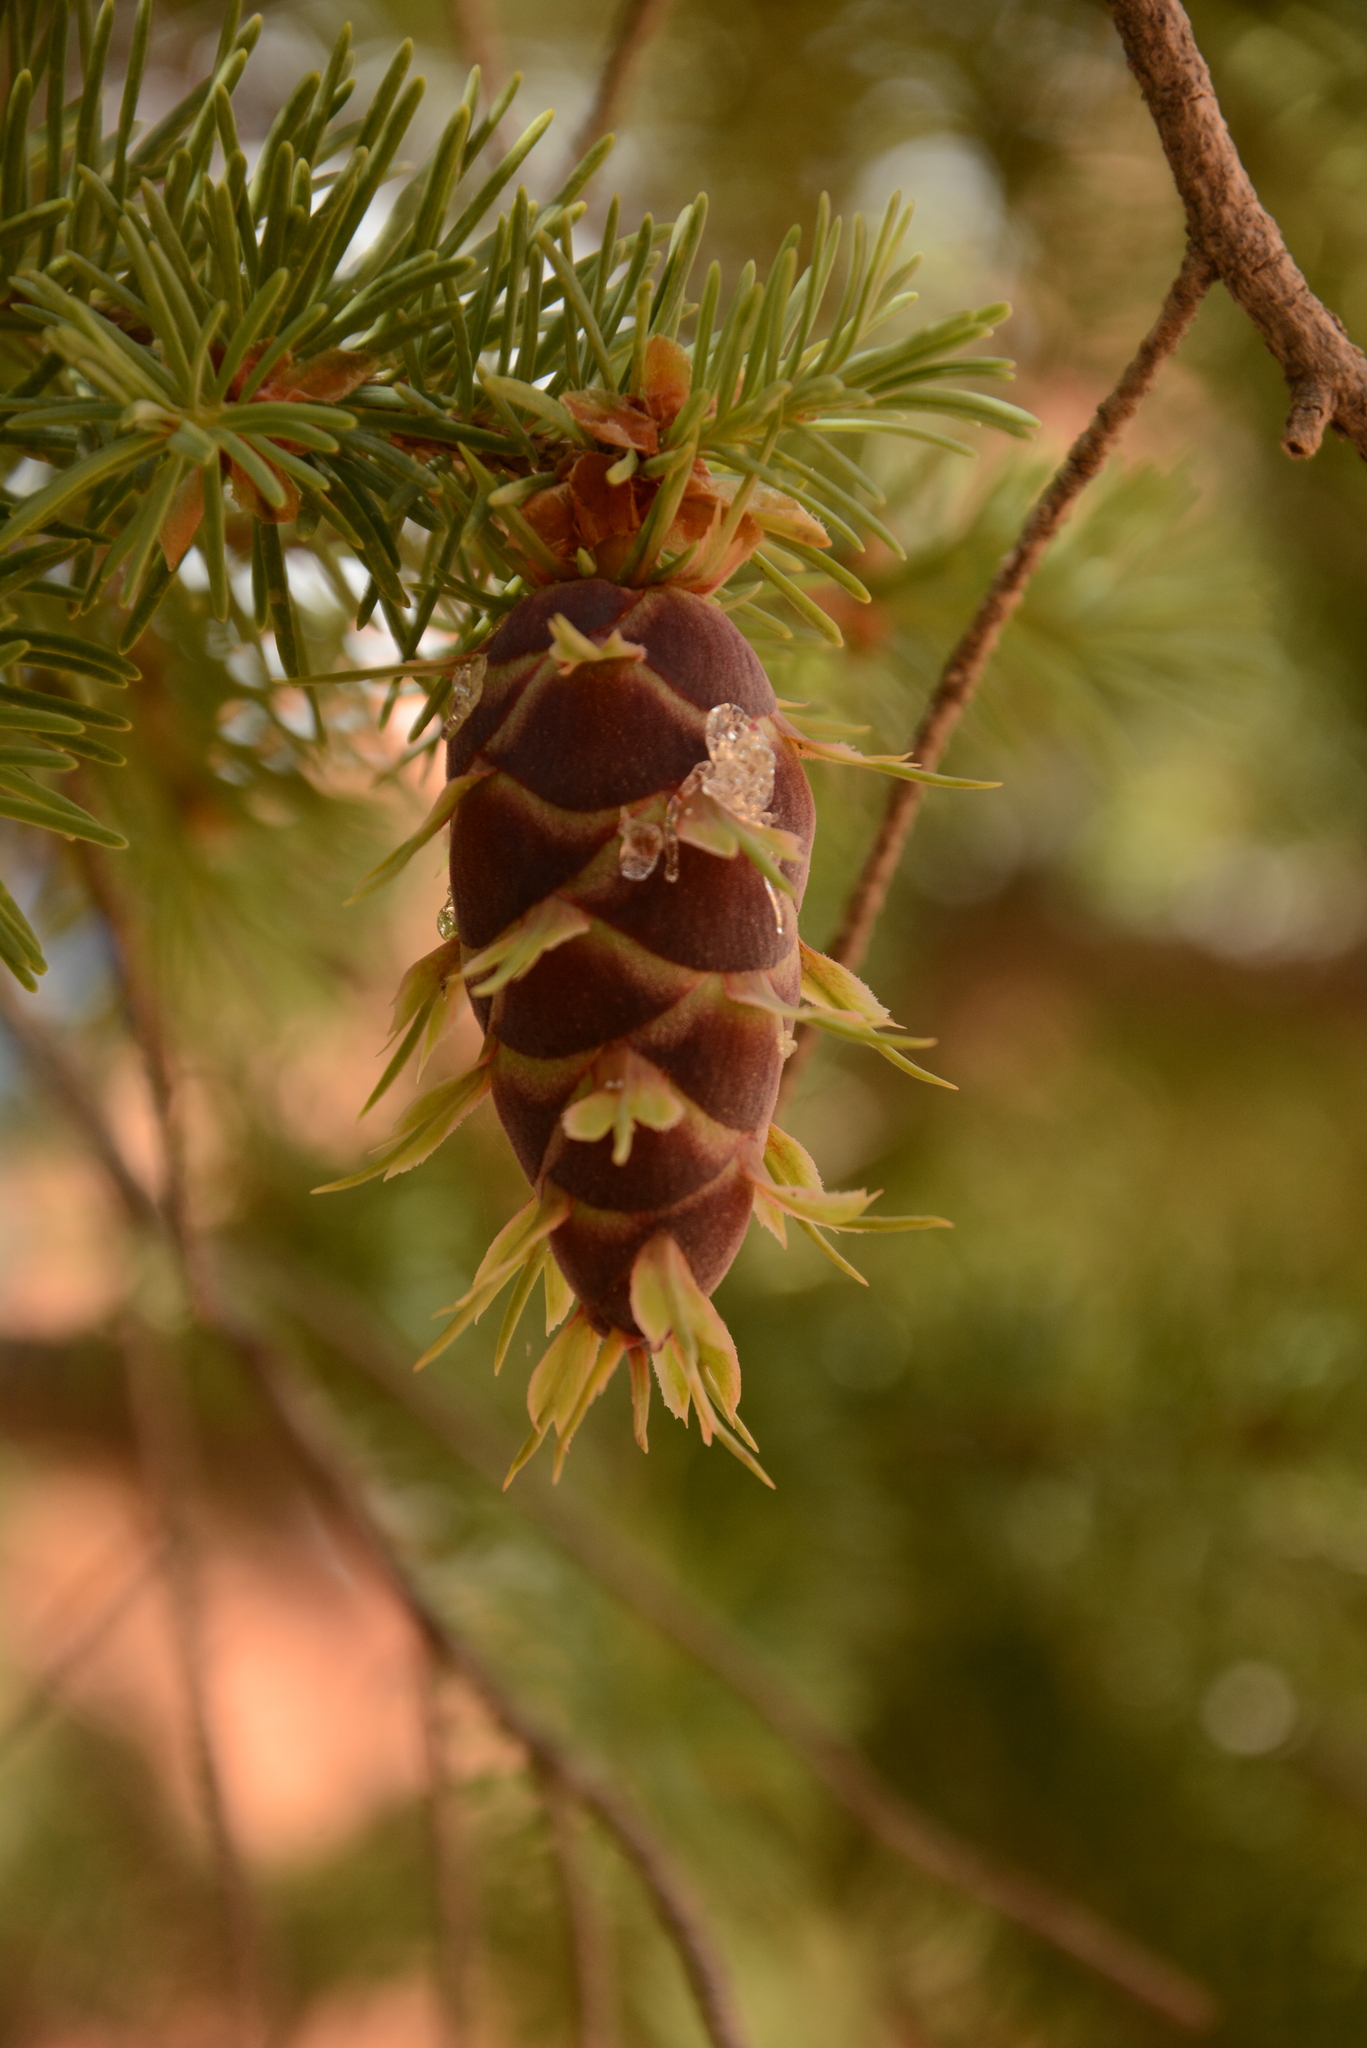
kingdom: Plantae
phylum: Tracheophyta
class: Pinopsida
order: Pinales
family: Pinaceae
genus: Pseudotsuga
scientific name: Pseudotsuga menziesii
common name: Douglas fir
